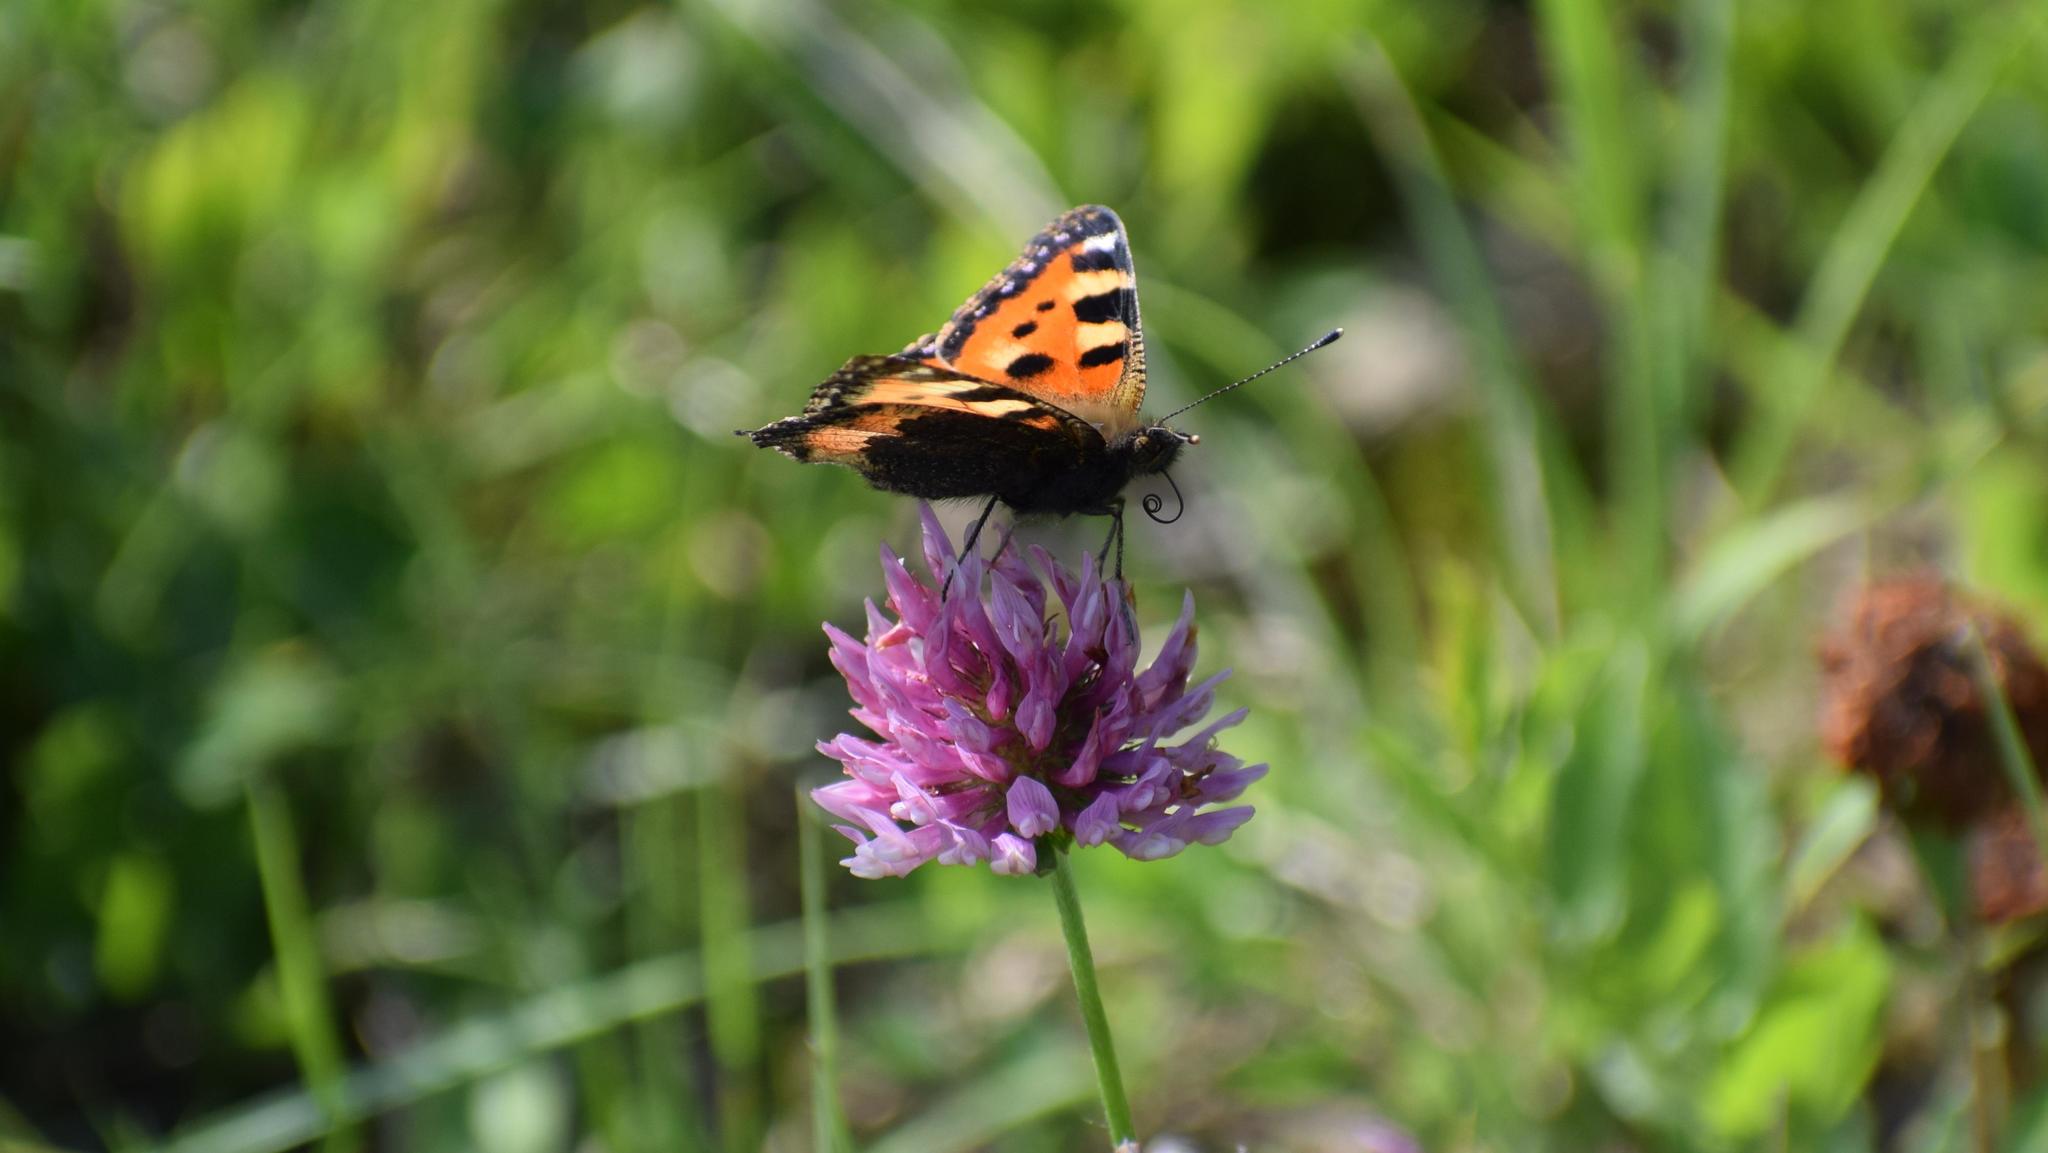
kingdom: Animalia
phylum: Arthropoda
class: Insecta
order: Lepidoptera
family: Nymphalidae
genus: Aglais
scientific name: Aglais urticae
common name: Small tortoiseshell
